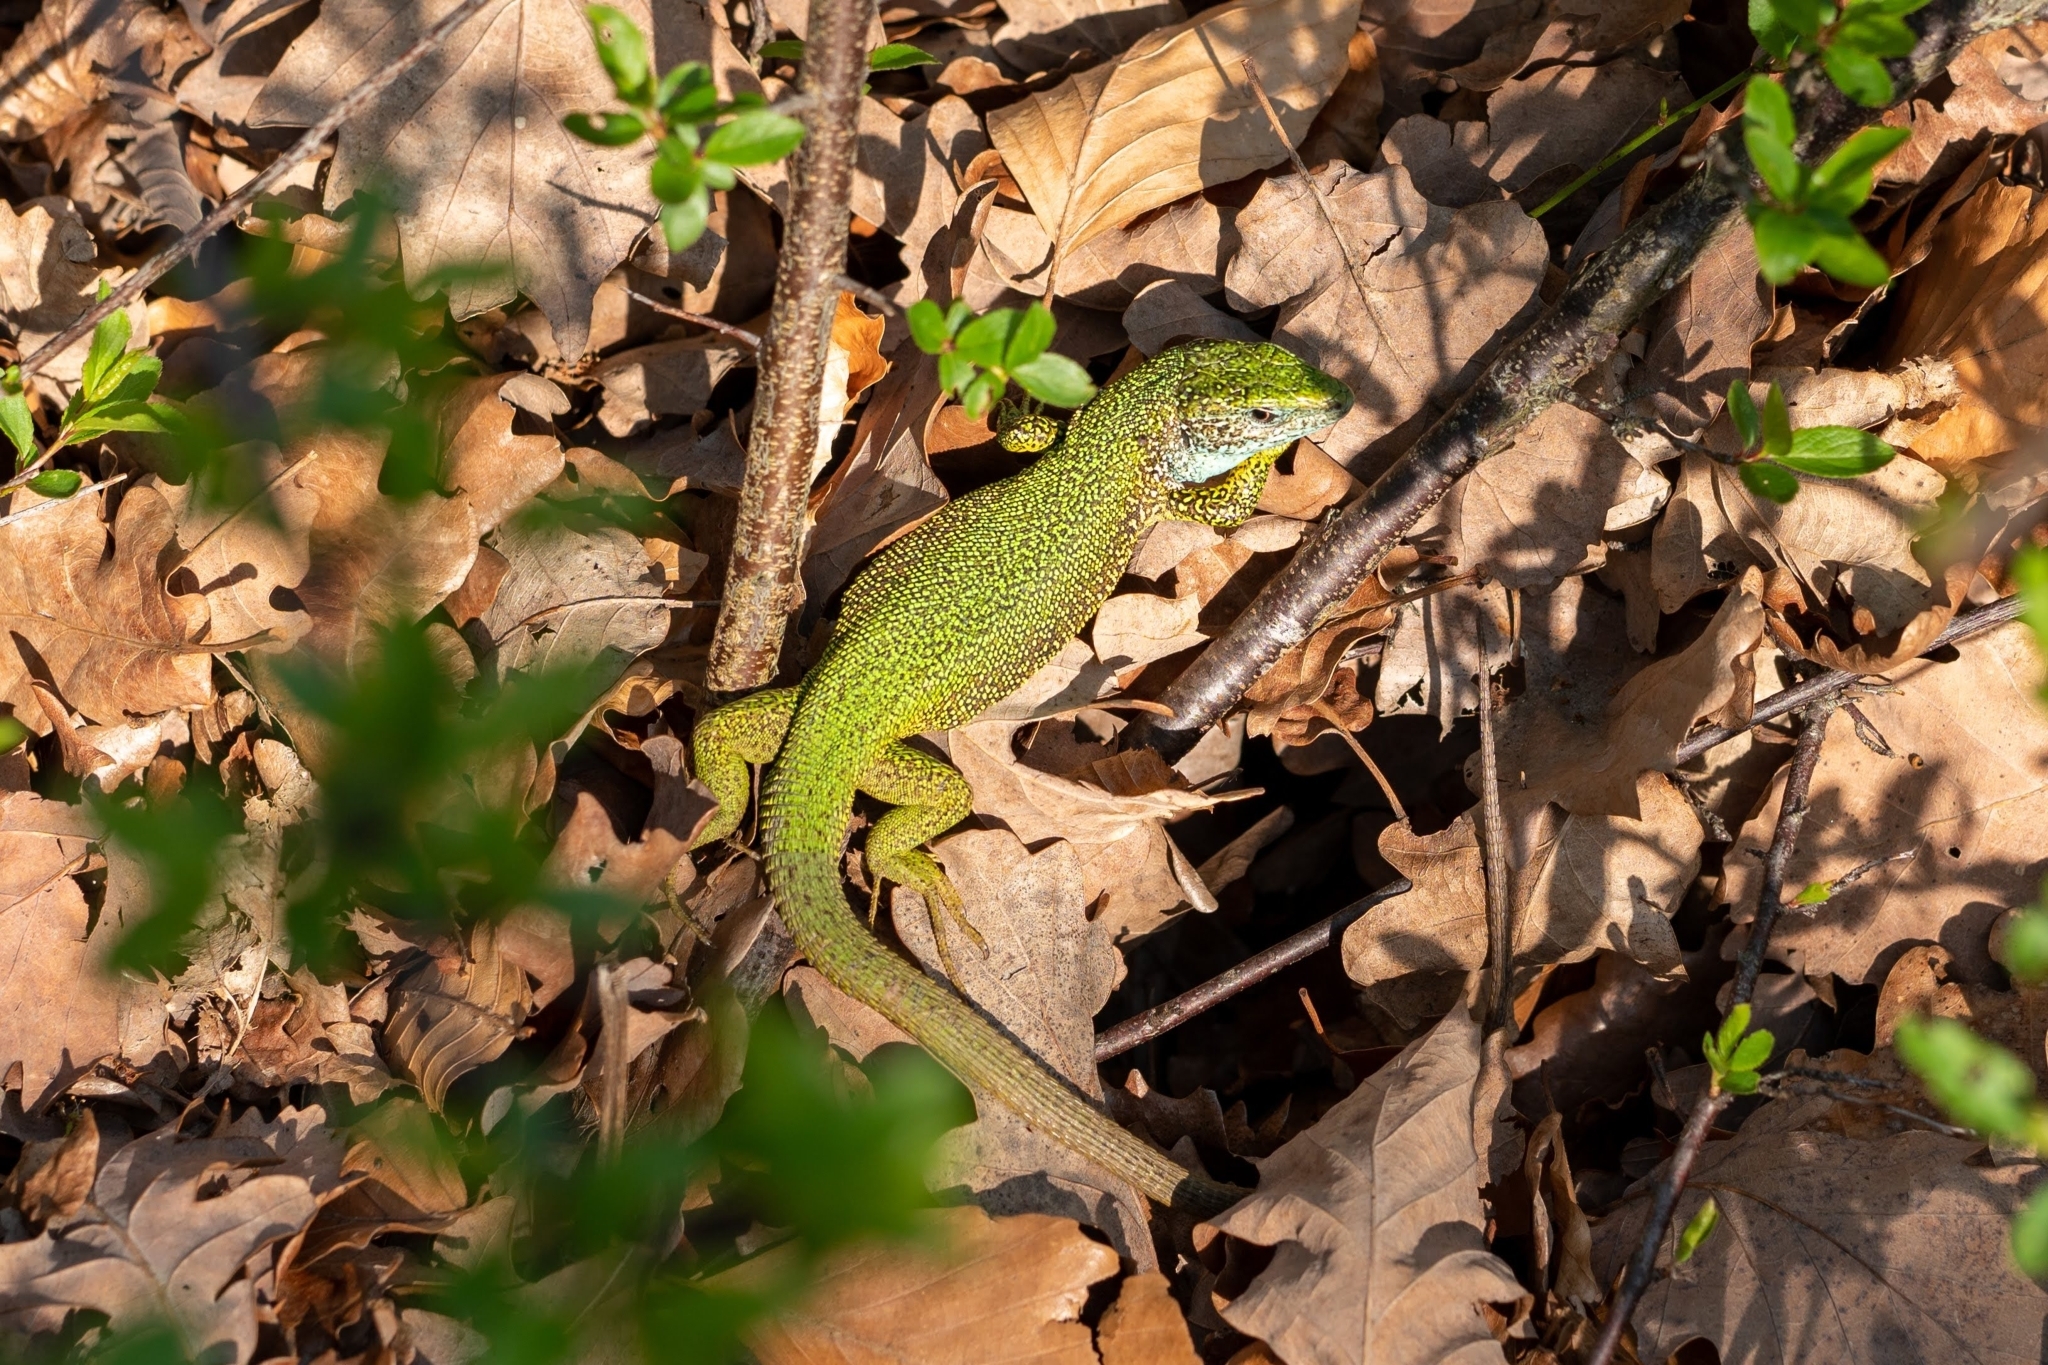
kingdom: Animalia
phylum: Chordata
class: Squamata
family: Lacertidae
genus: Lacerta
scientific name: Lacerta viridis
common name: European green lizard
